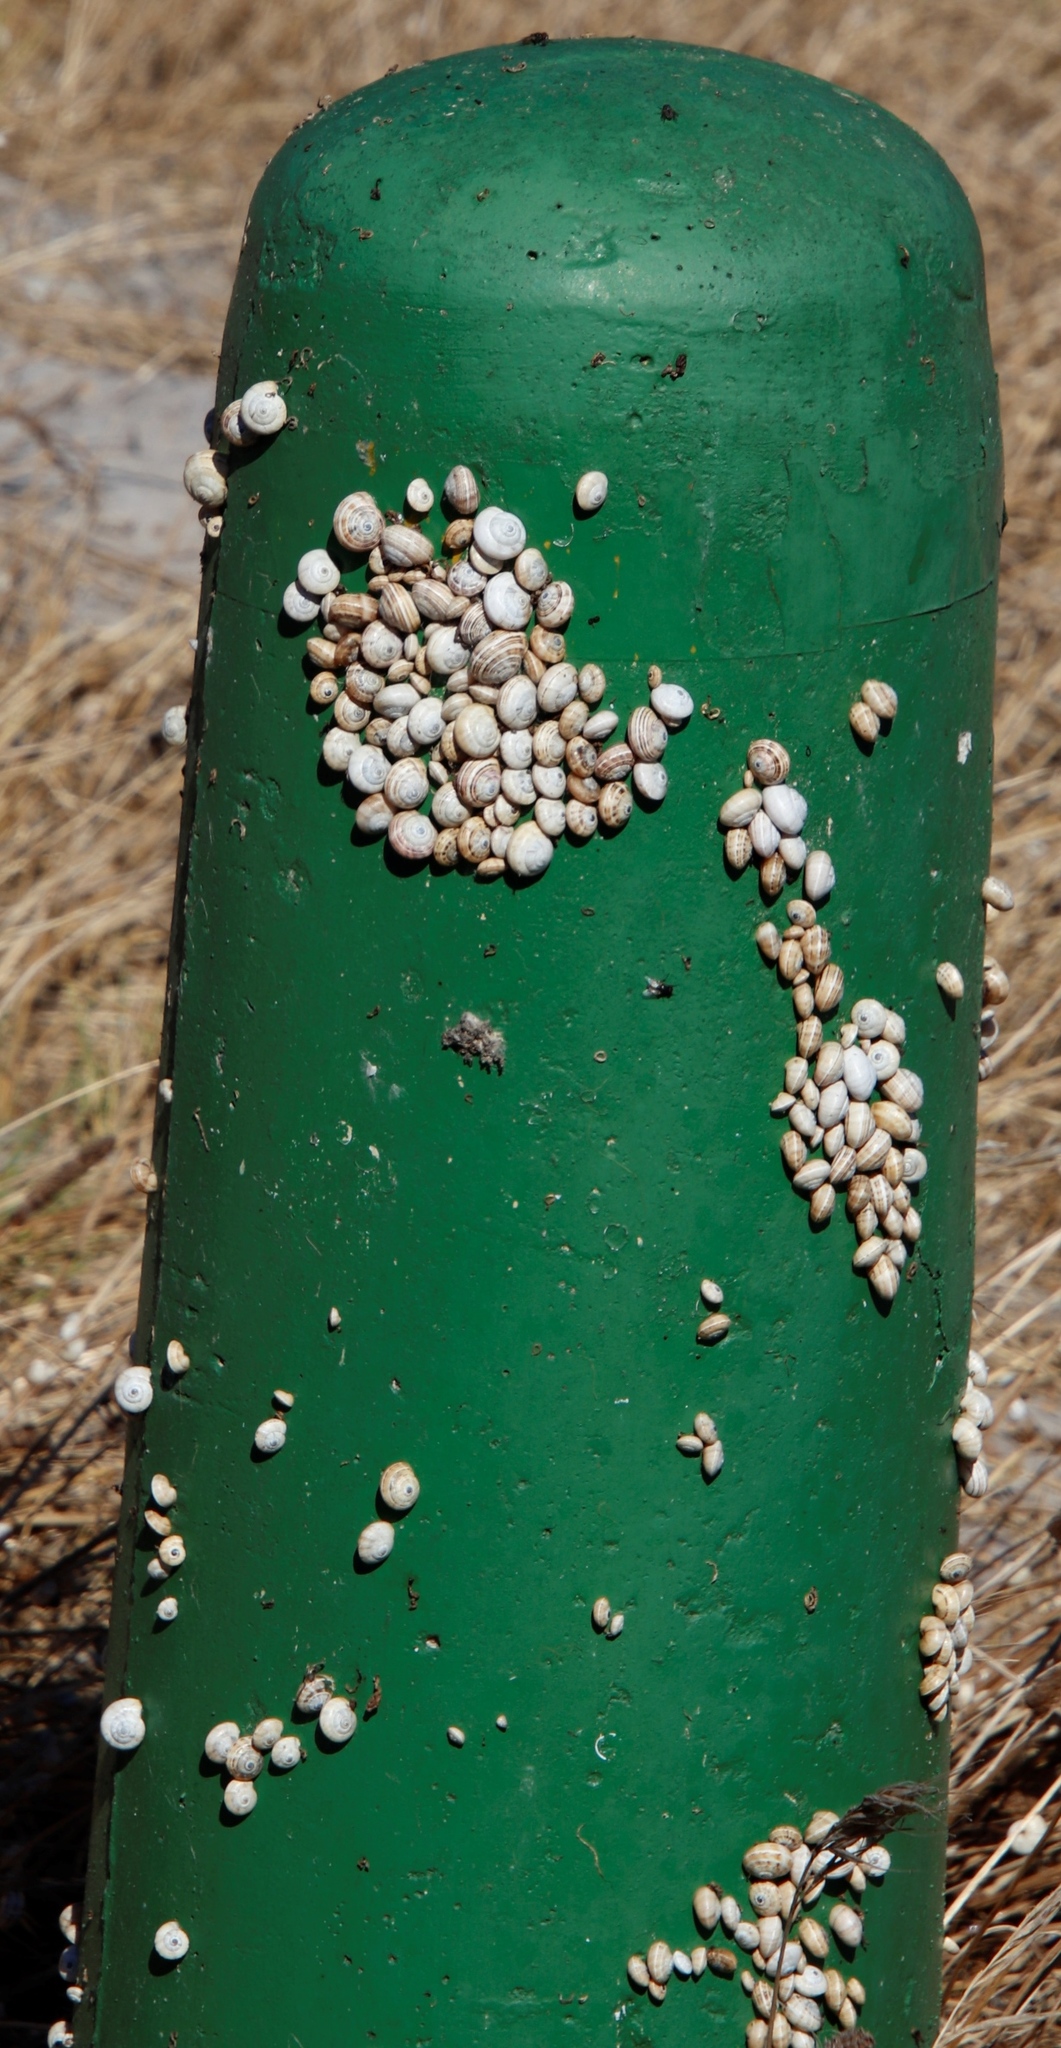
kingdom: Animalia
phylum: Mollusca
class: Gastropoda
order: Stylommatophora
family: Helicidae
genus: Theba
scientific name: Theba pisana
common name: White snail
